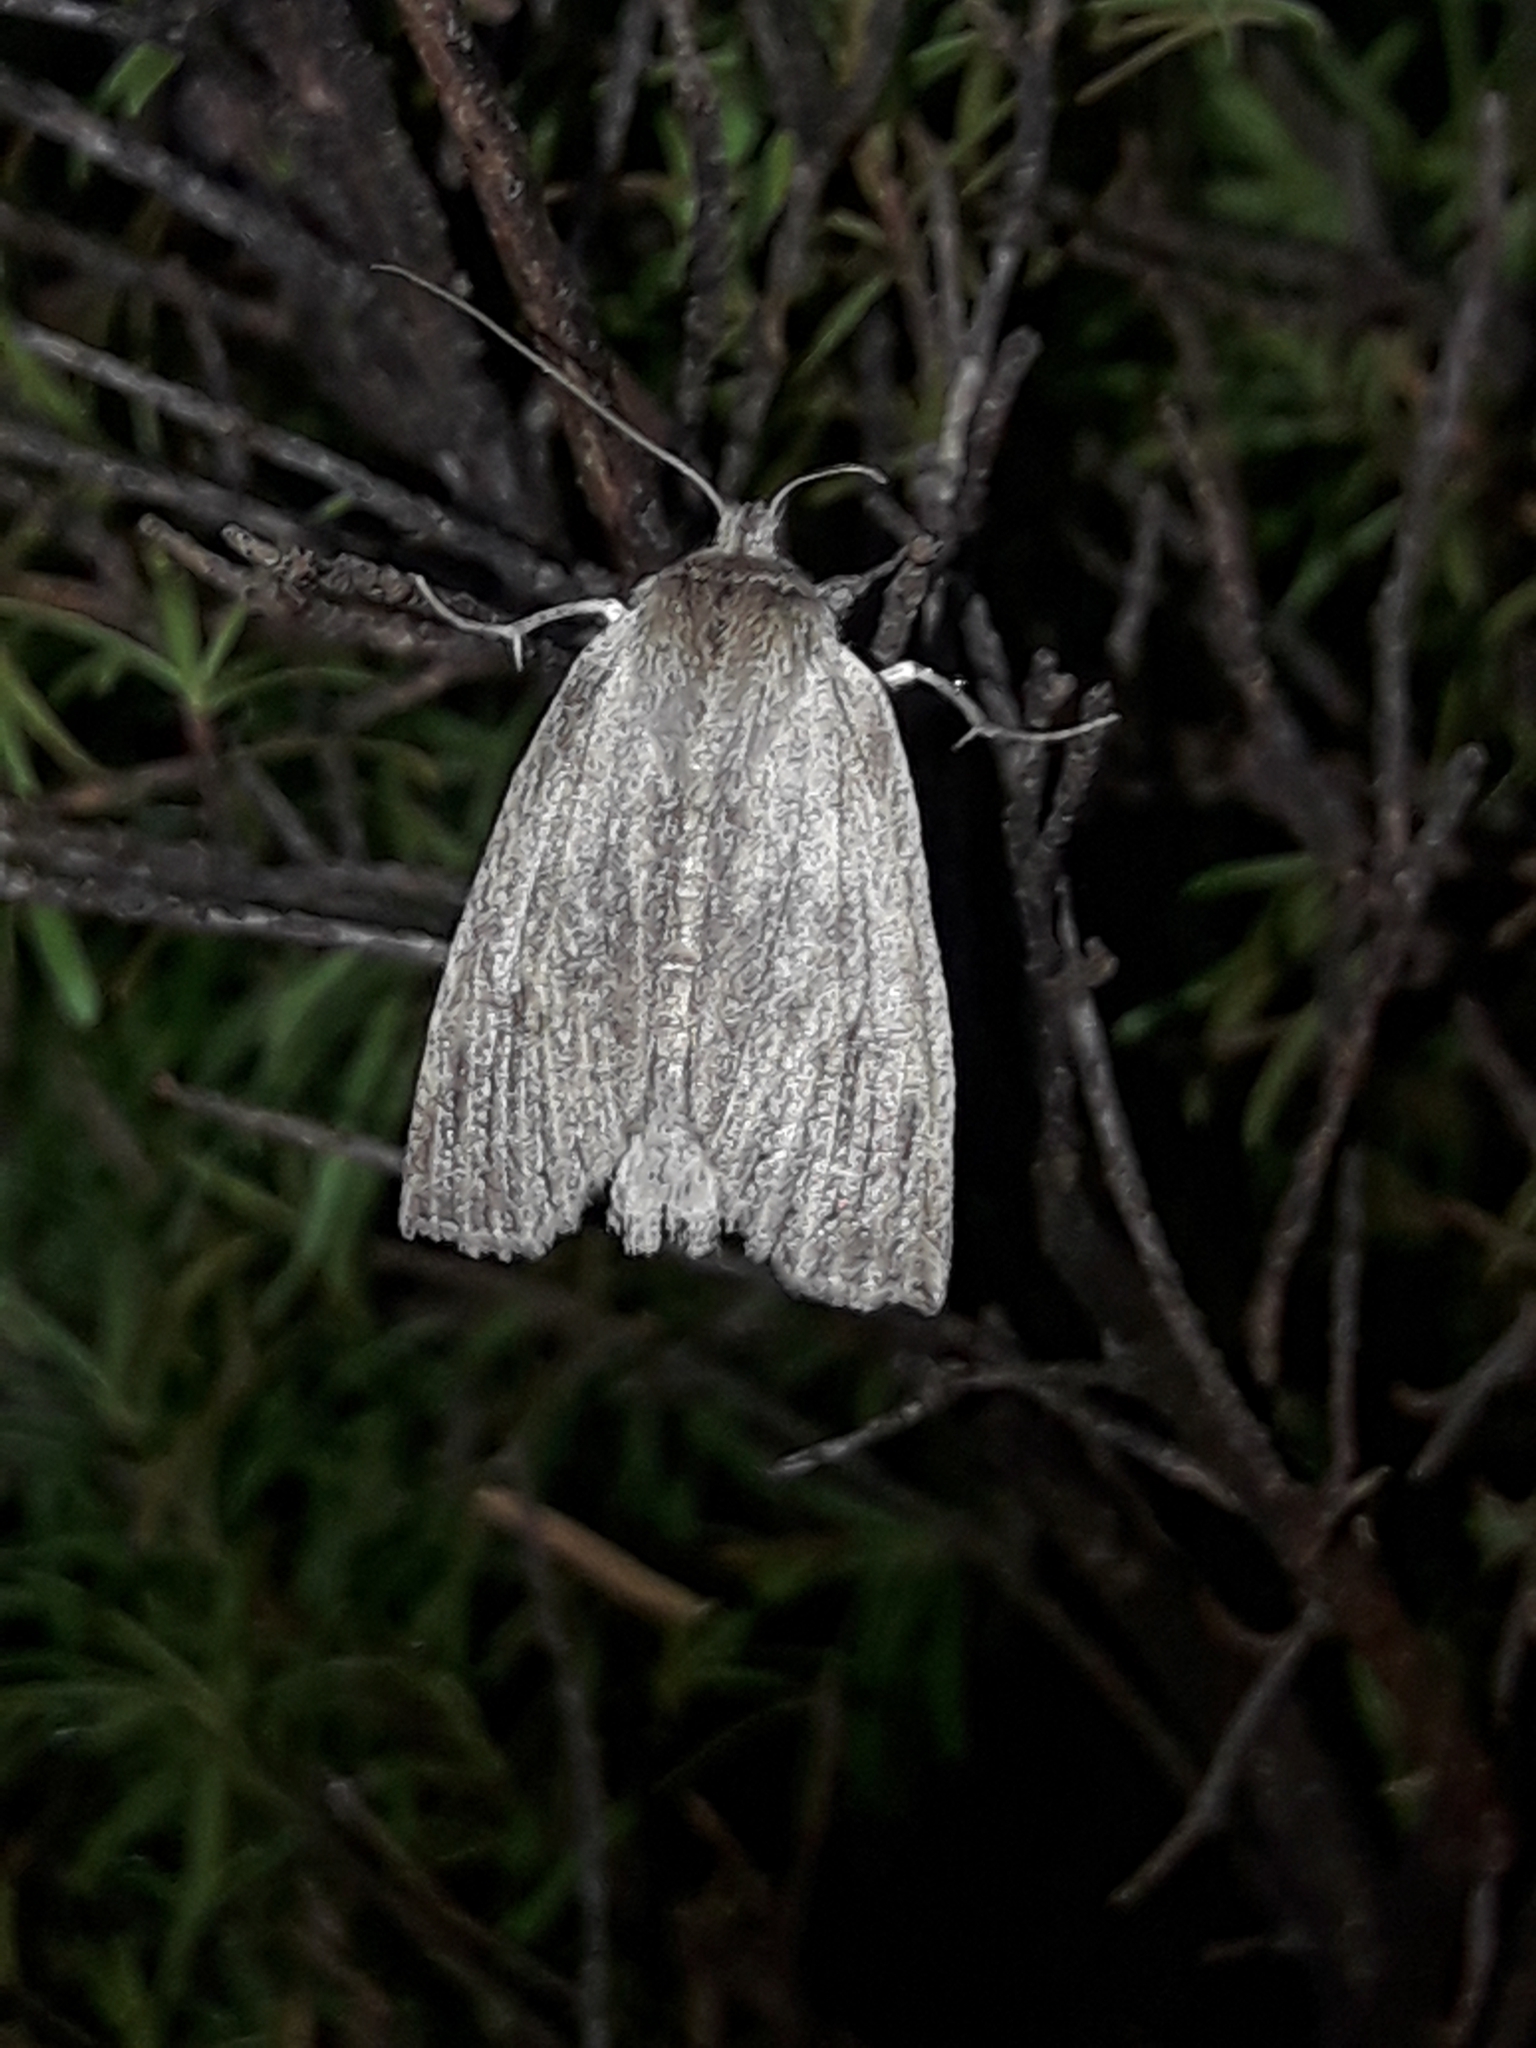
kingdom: Animalia
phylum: Arthropoda
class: Insecta
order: Lepidoptera
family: Geometridae
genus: Declana
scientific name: Declana leptomera
